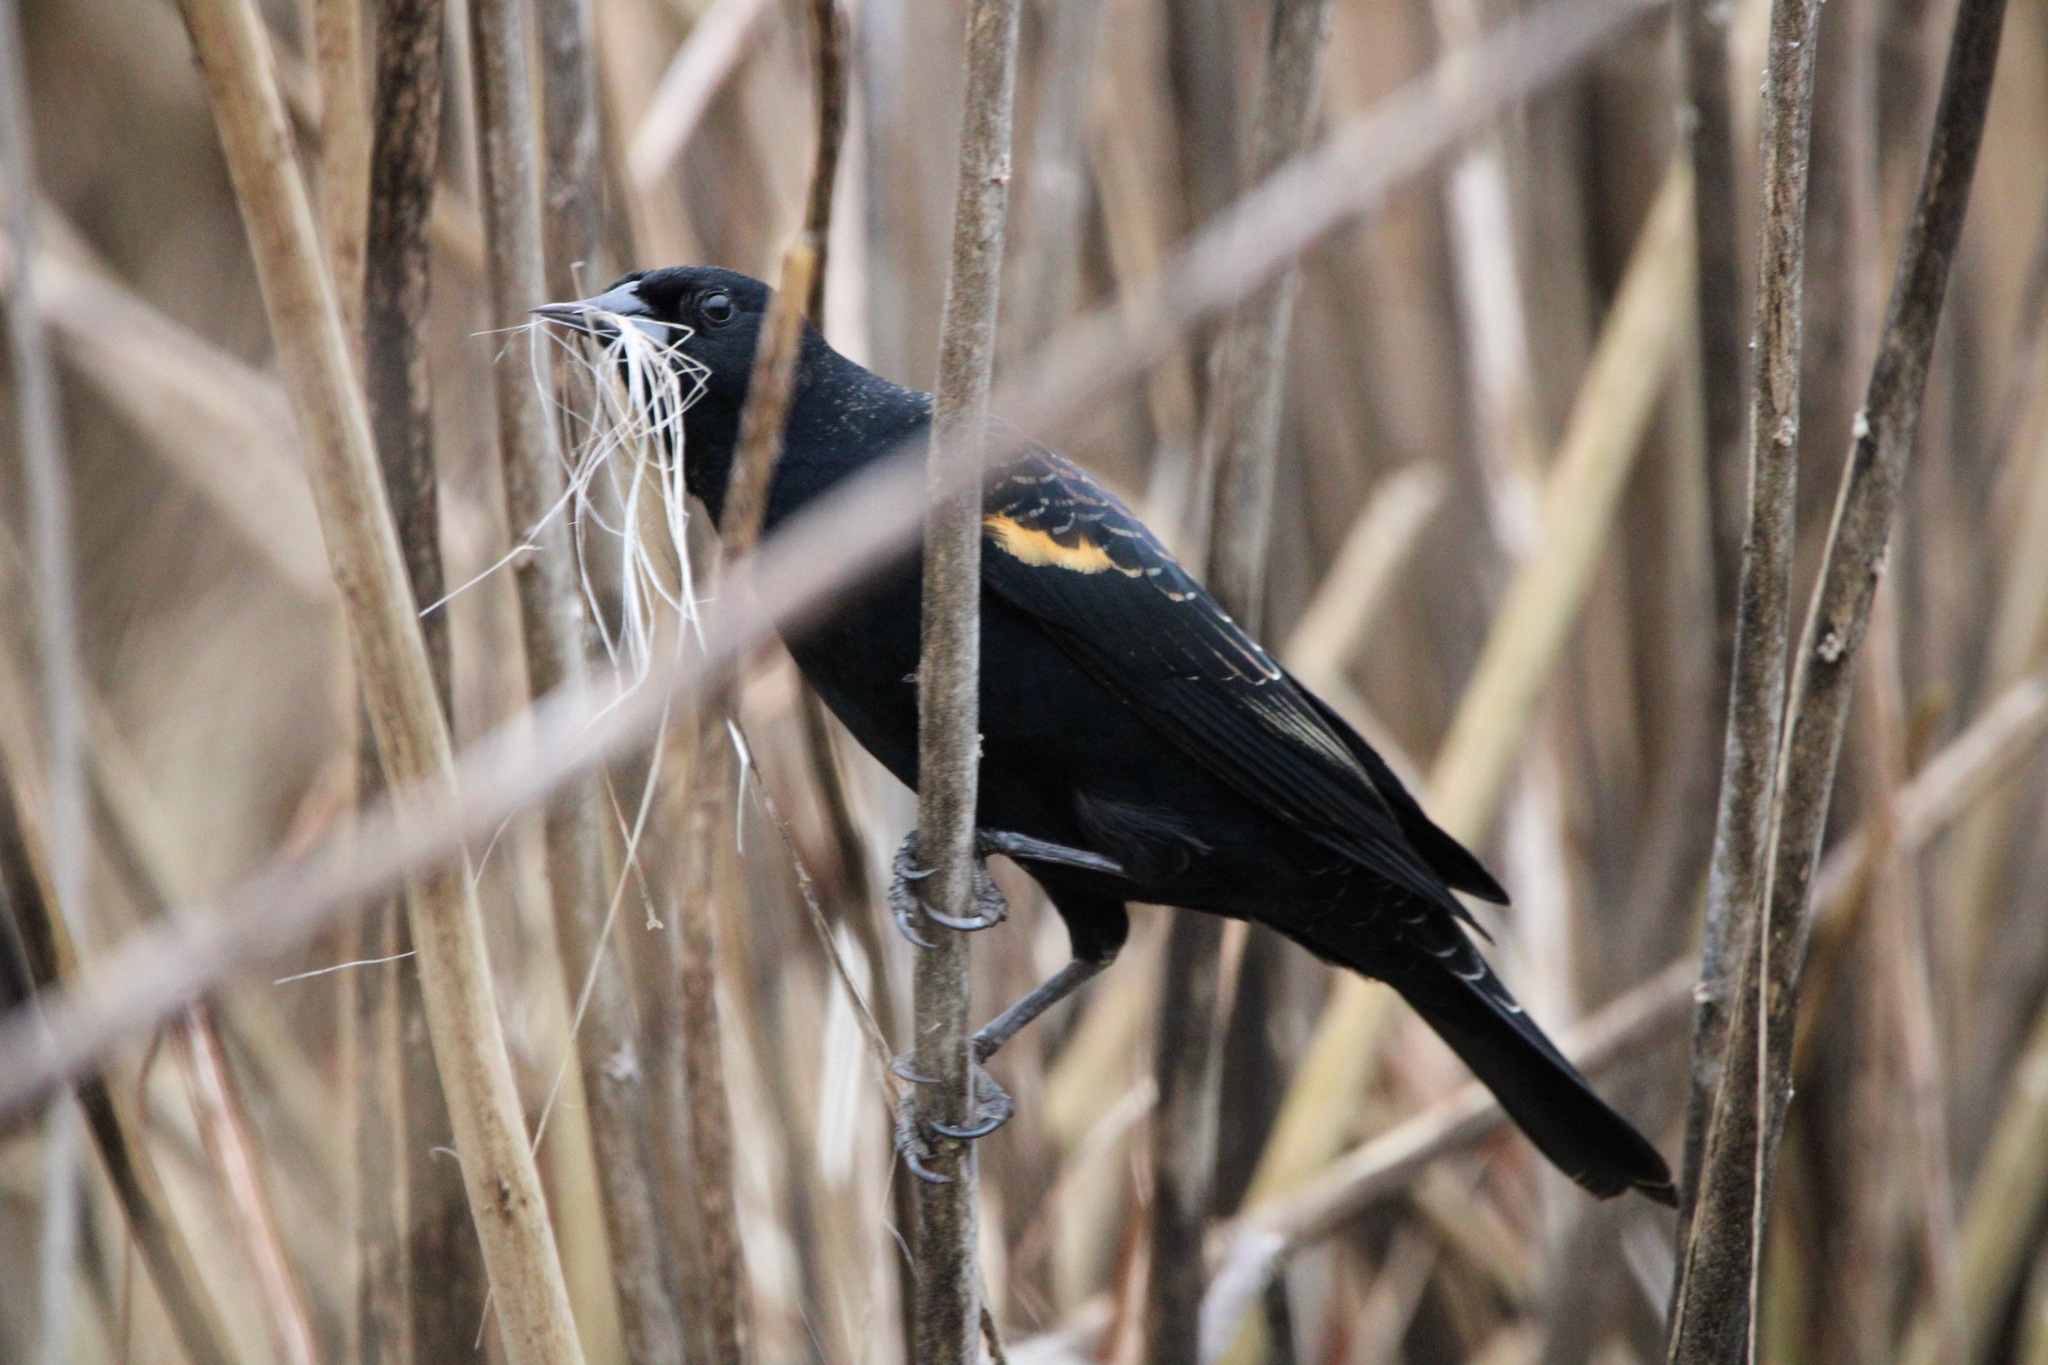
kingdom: Animalia
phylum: Chordata
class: Aves
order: Passeriformes
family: Icteridae
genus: Agelaius
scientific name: Agelaius phoeniceus
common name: Red-winged blackbird
